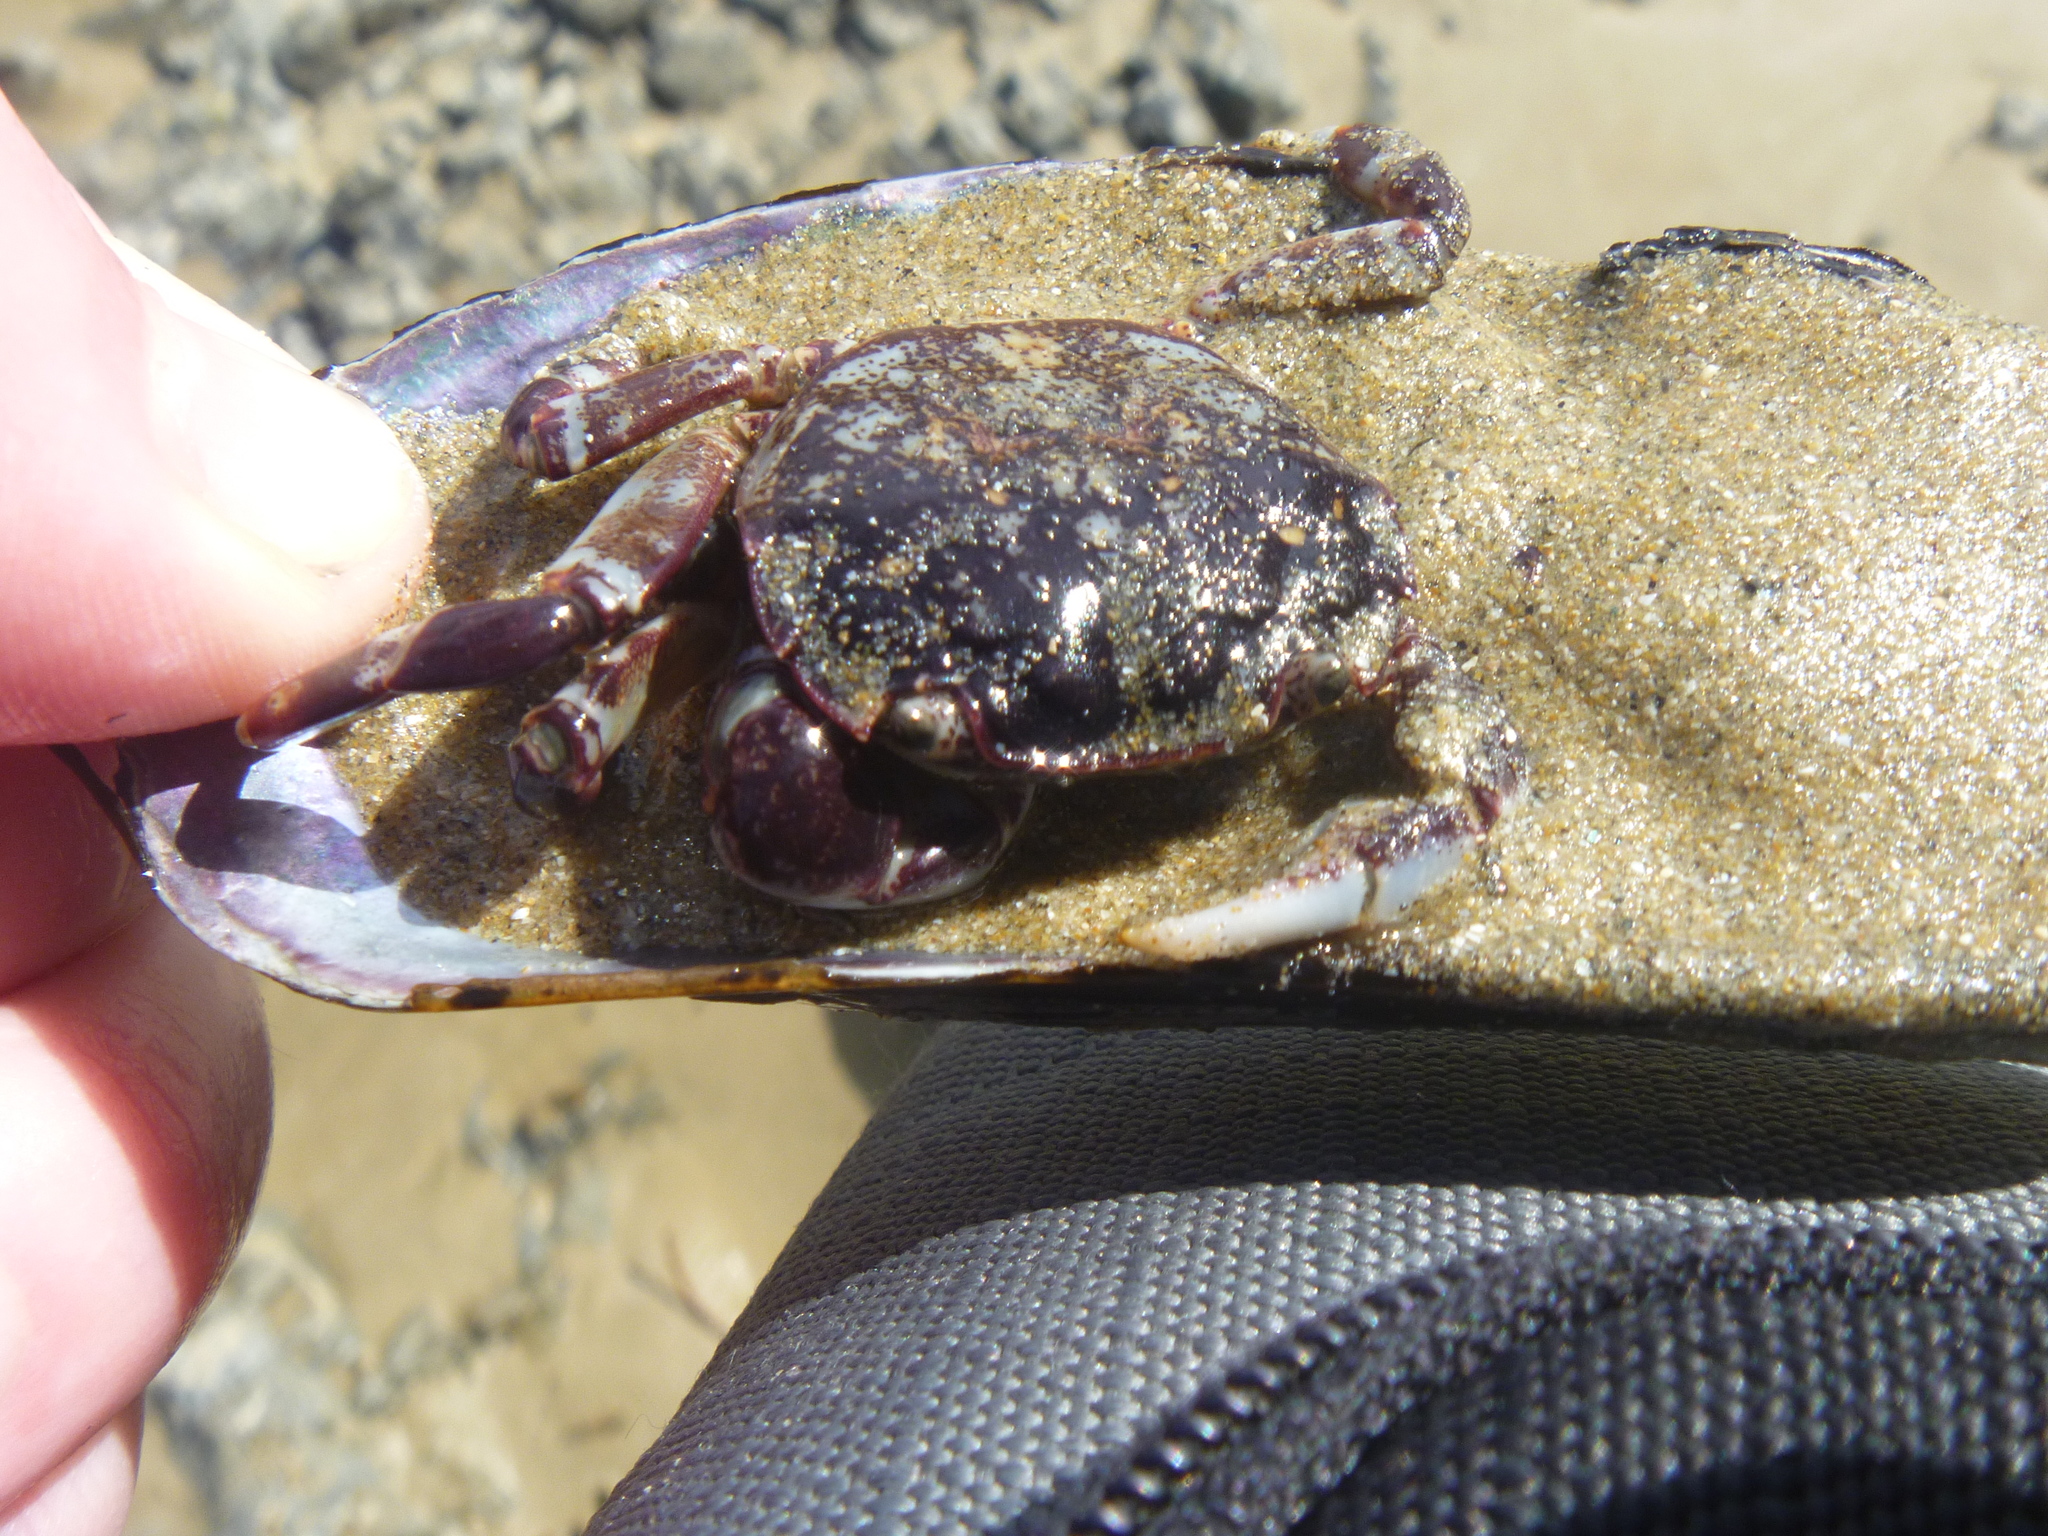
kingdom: Animalia
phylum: Arthropoda
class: Malacostraca
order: Decapoda
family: Varunidae
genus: Hemigrapsus
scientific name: Hemigrapsus sexdentatus
